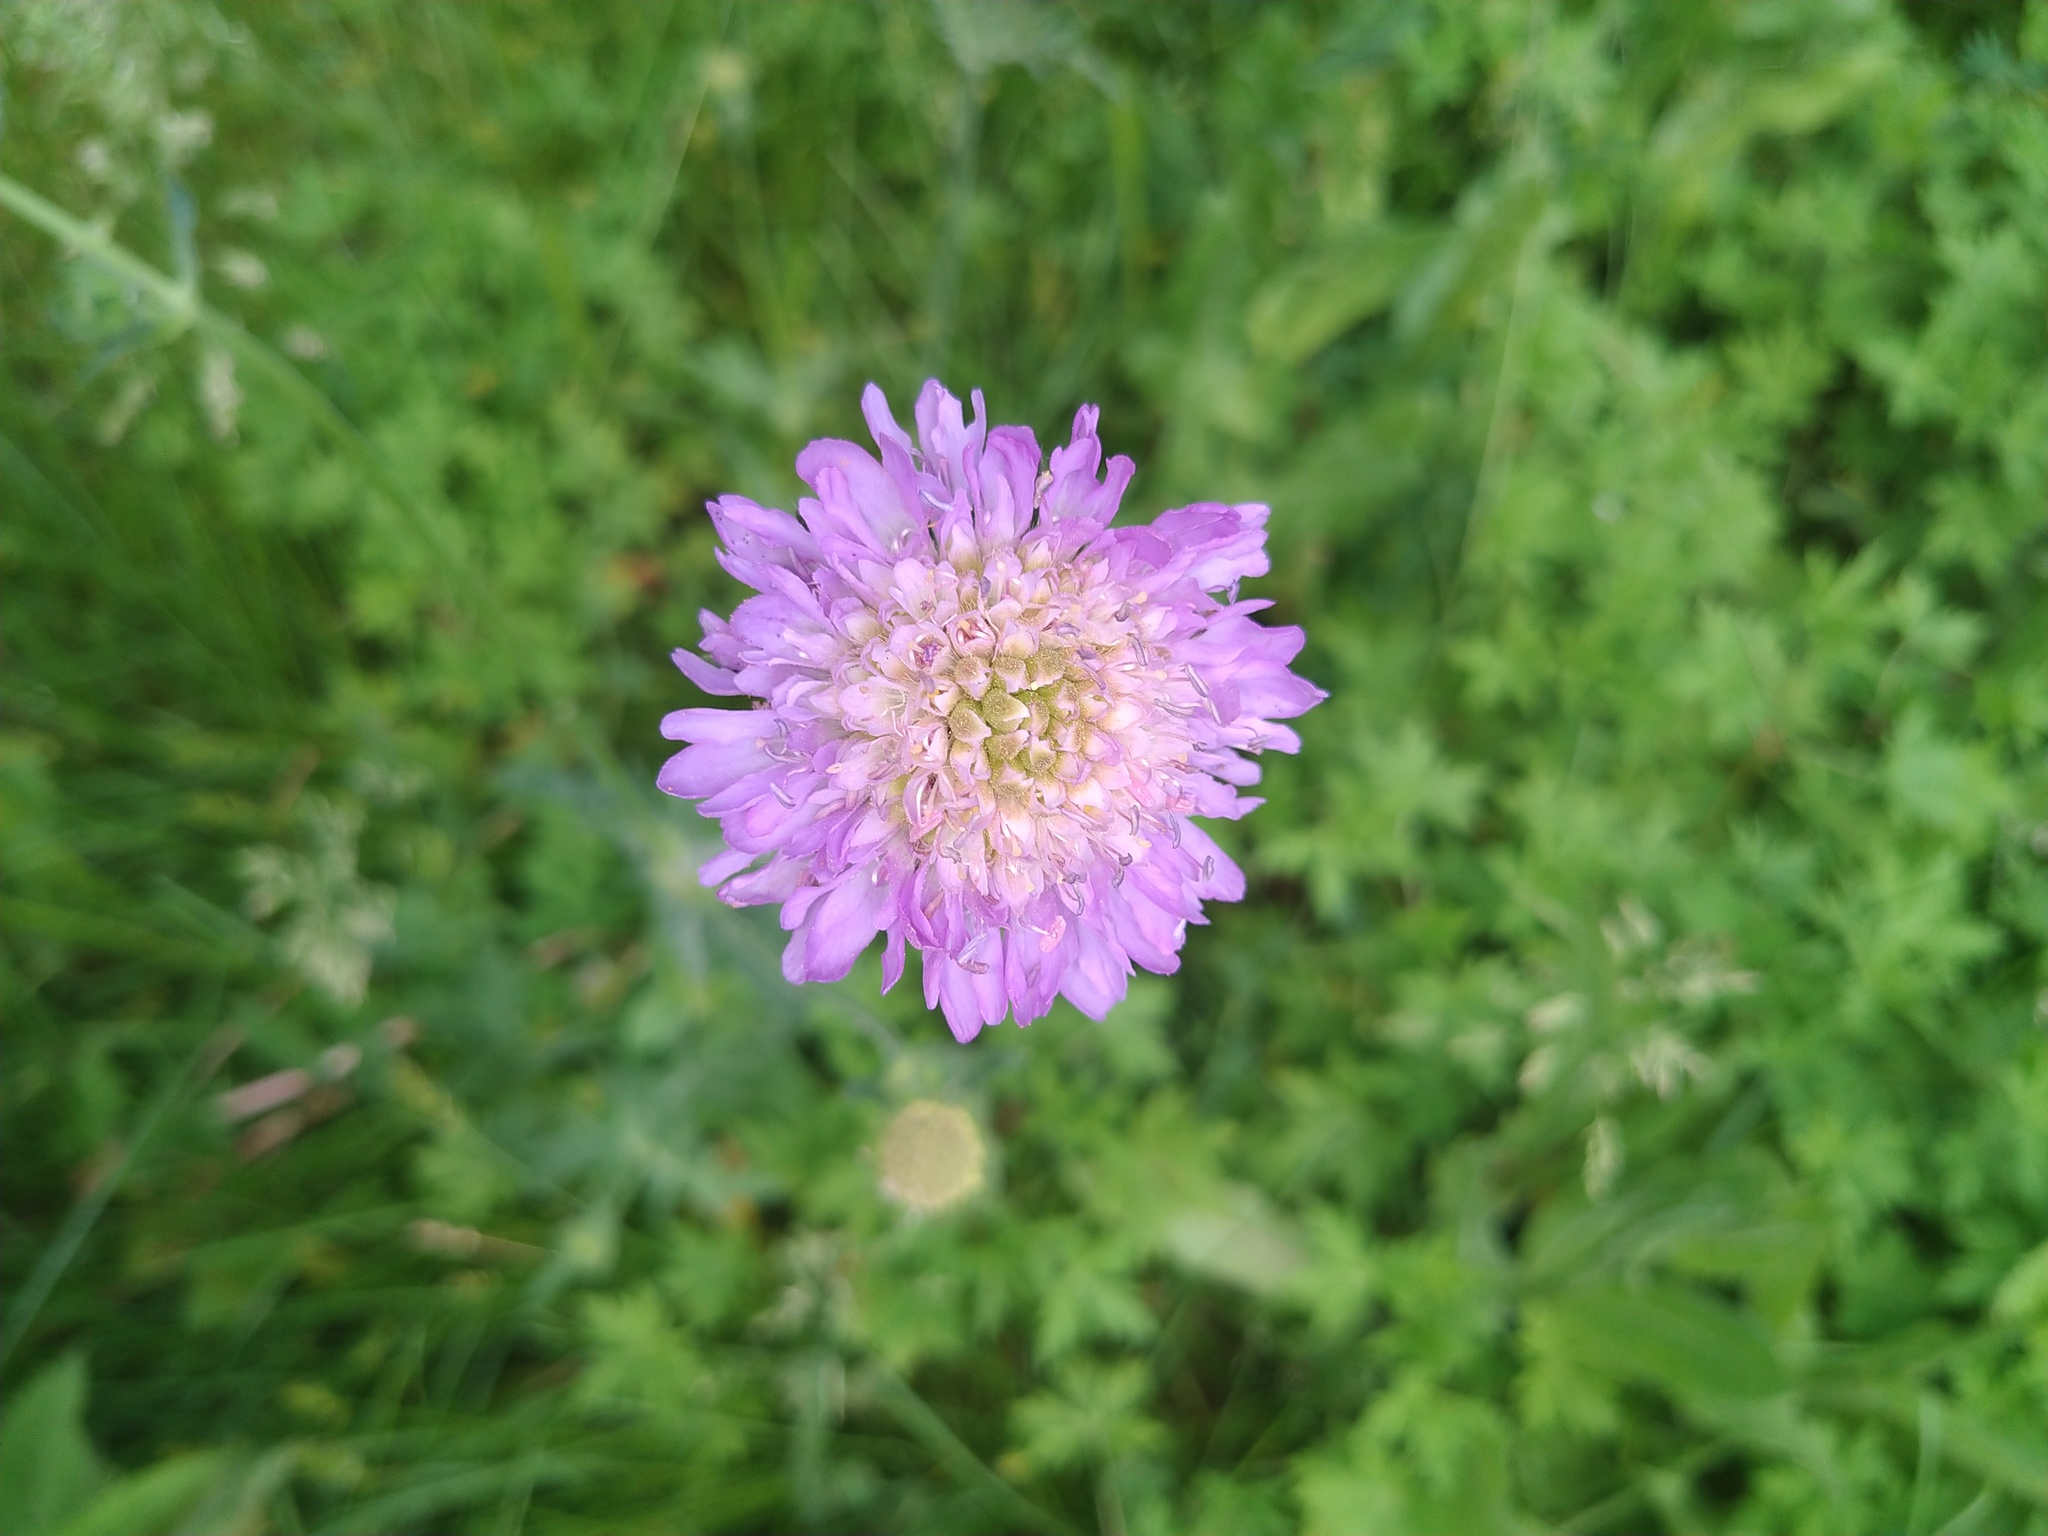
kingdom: Plantae
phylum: Tracheophyta
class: Magnoliopsida
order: Dipsacales
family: Caprifoliaceae
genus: Knautia
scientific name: Knautia arvensis
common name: Field scabiosa
